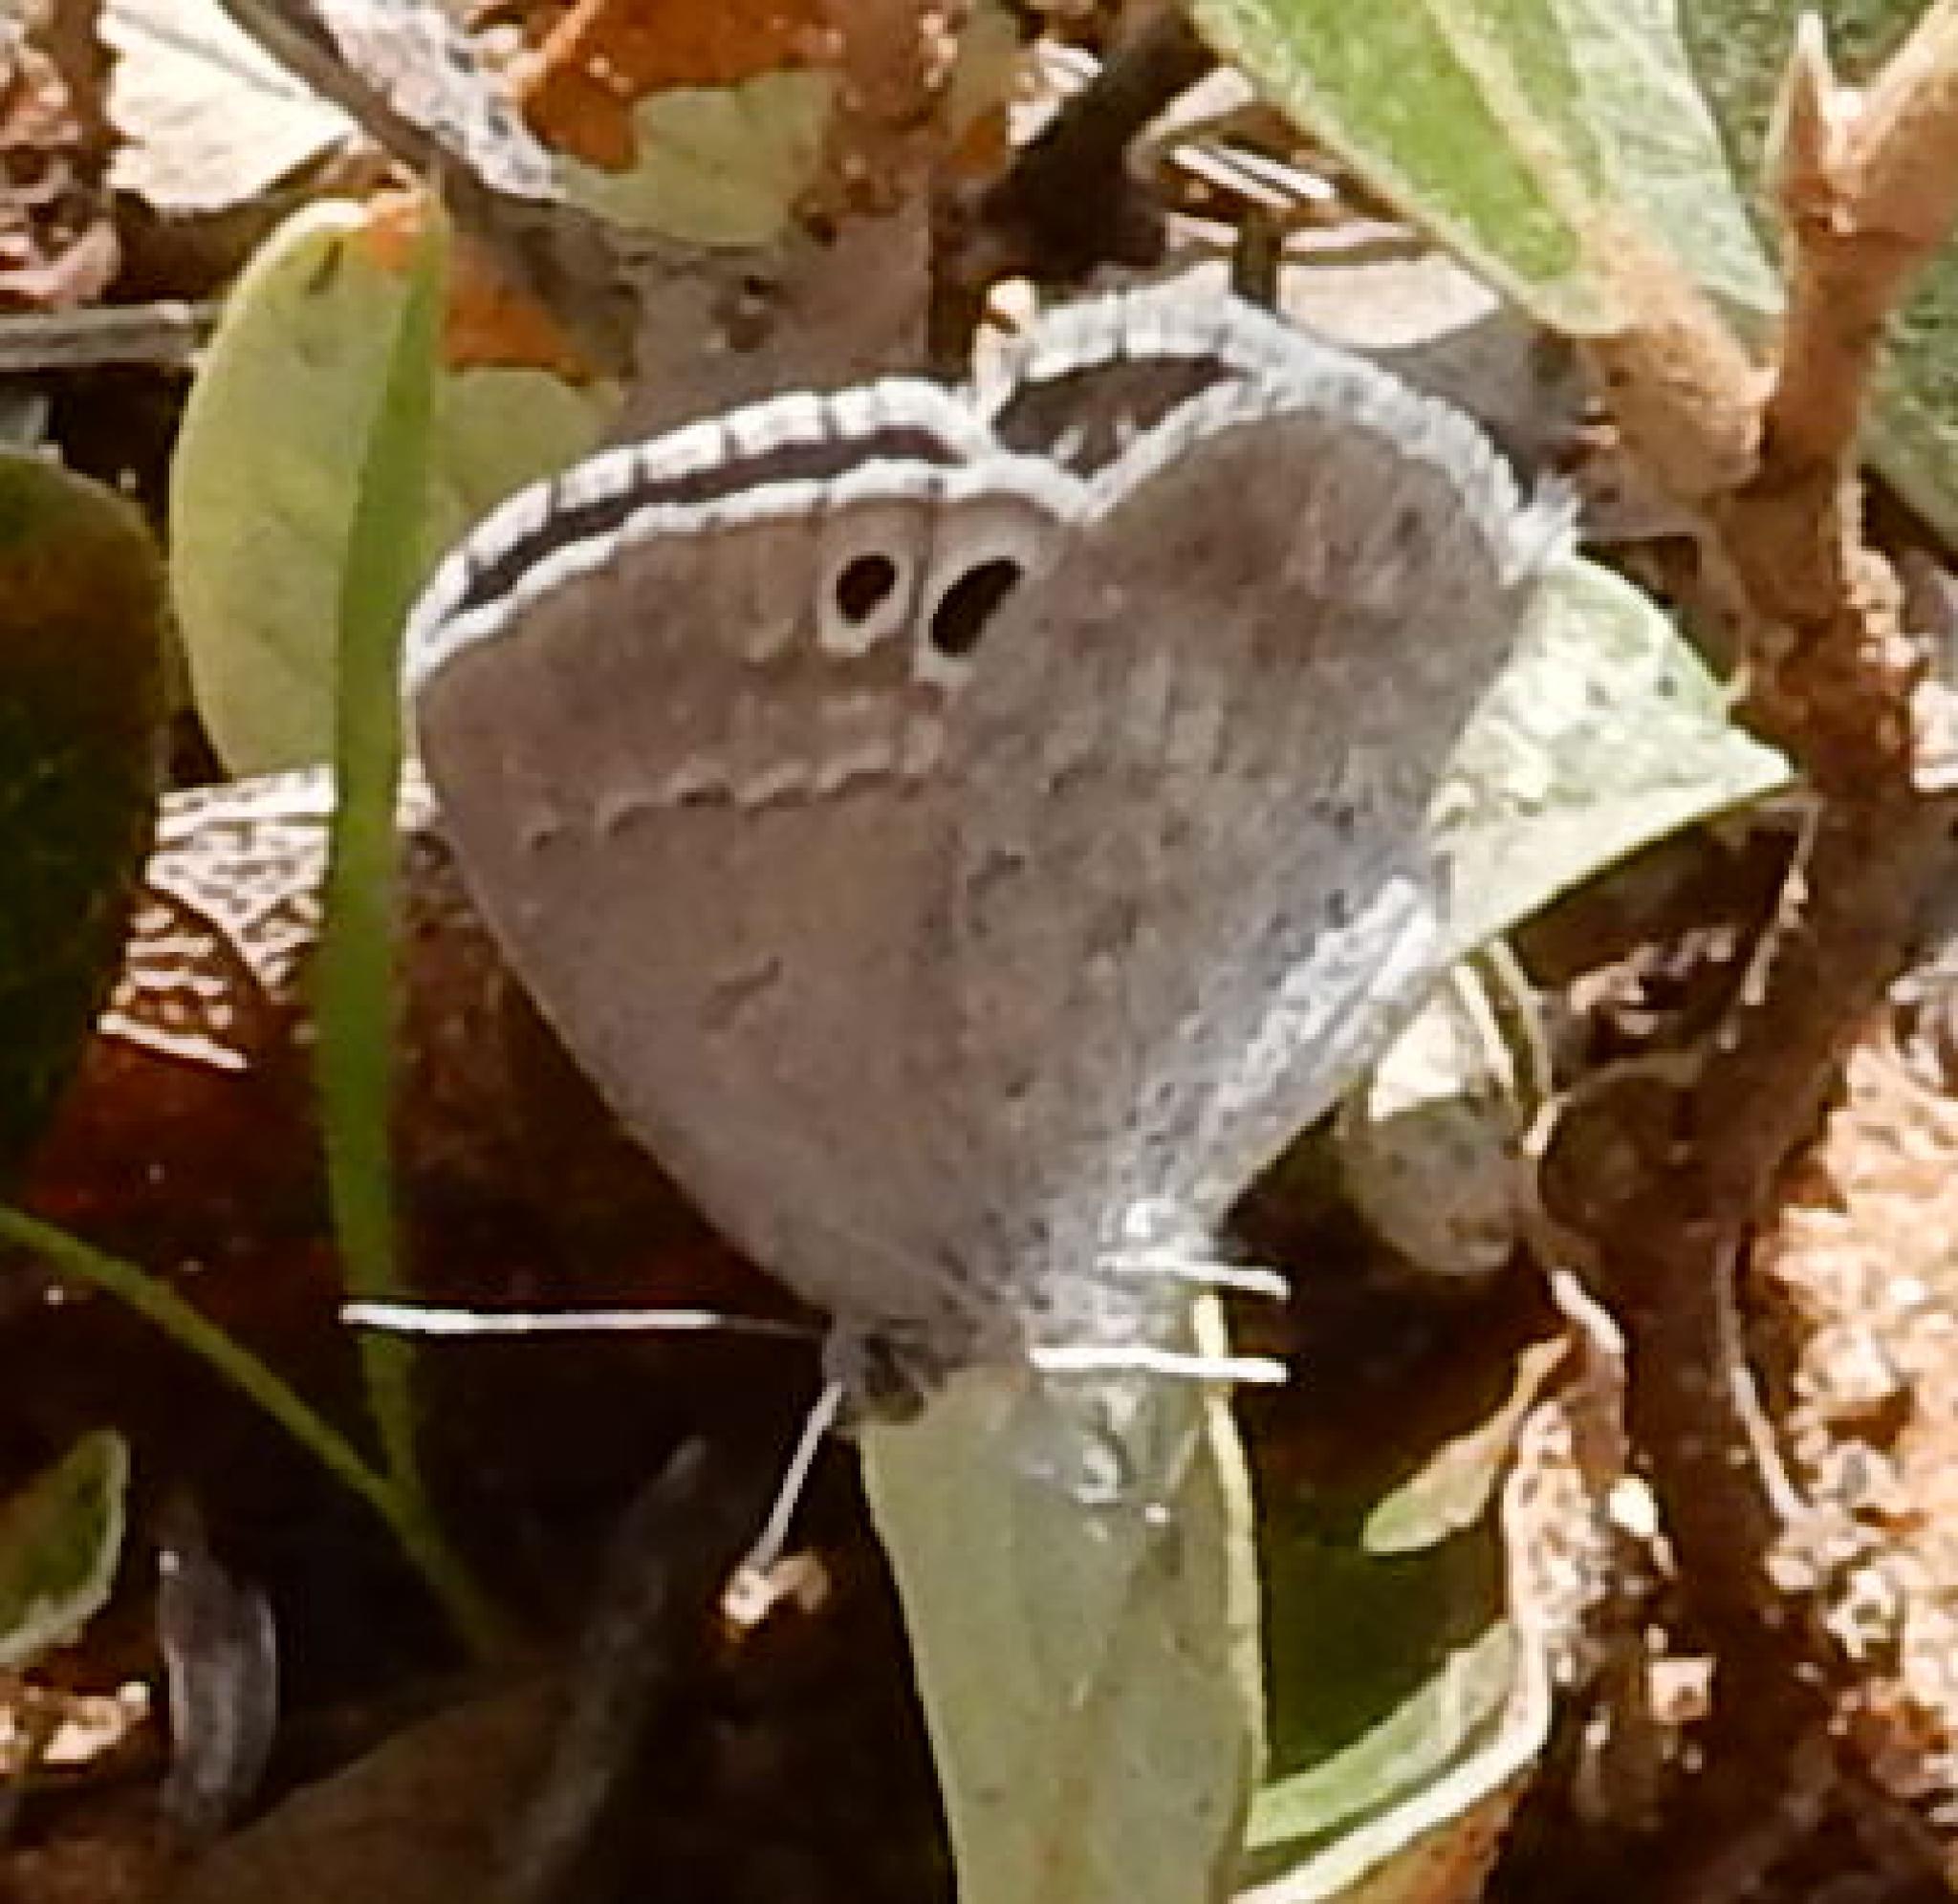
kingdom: Animalia
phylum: Arthropoda
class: Insecta
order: Lepidoptera
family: Lycaenidae
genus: Leptomyrina
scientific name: Leptomyrina henningi
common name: Henning's black-eye
